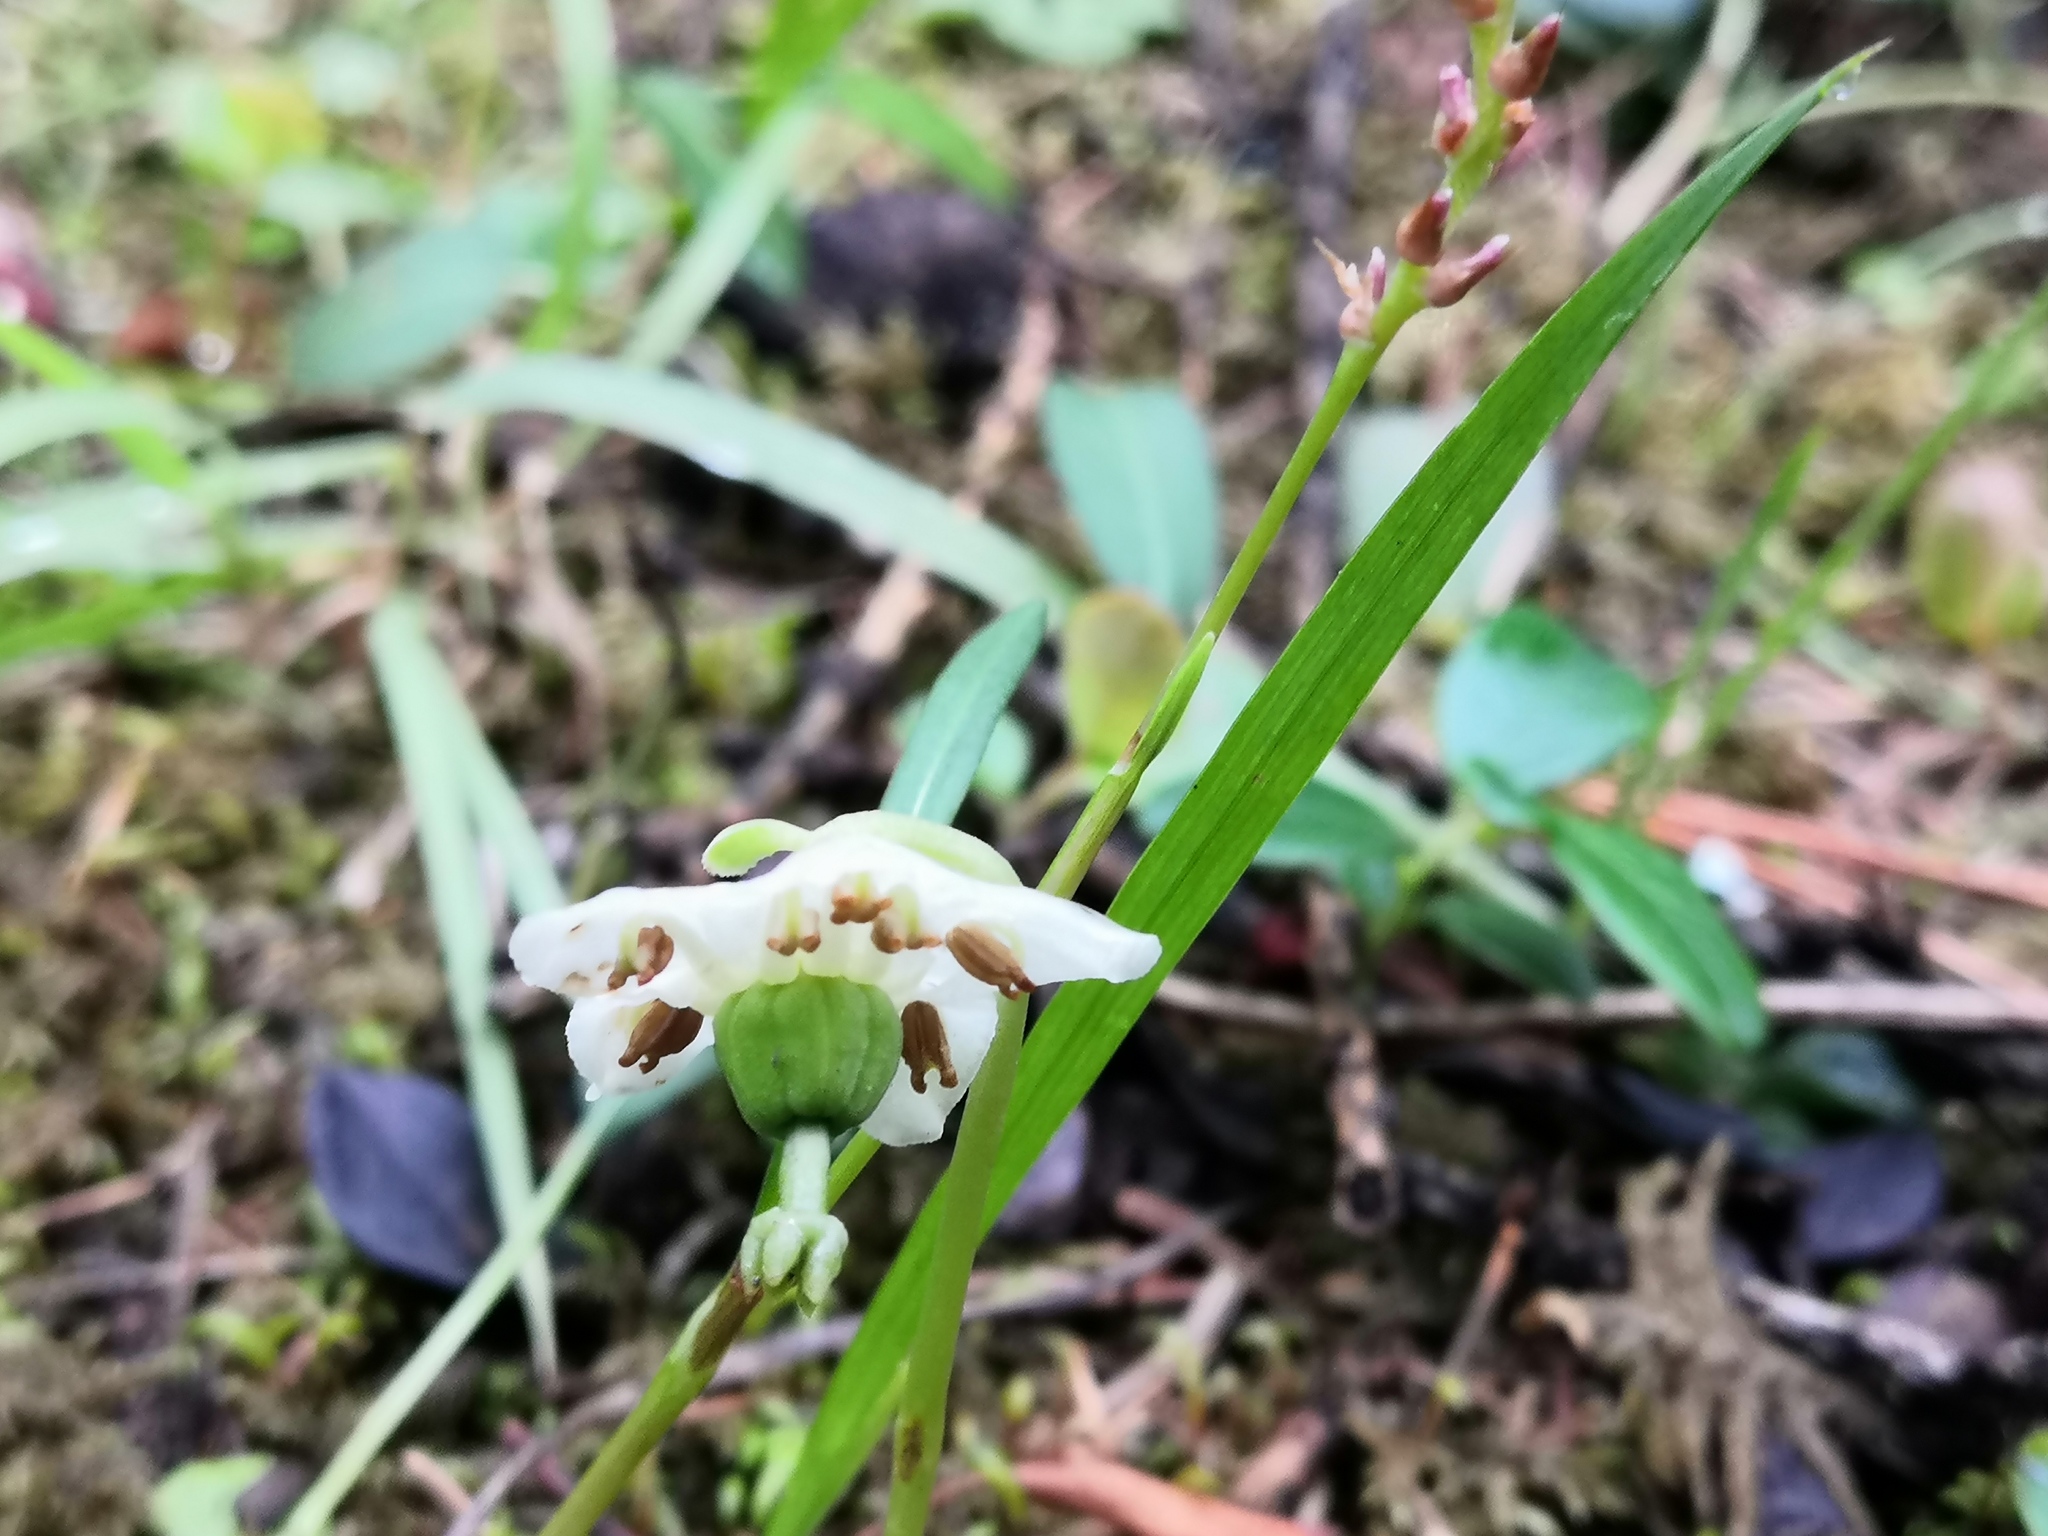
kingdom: Plantae
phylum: Tracheophyta
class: Magnoliopsida
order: Ericales
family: Ericaceae
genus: Moneses
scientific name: Moneses uniflora
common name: One-flowered wintergreen
